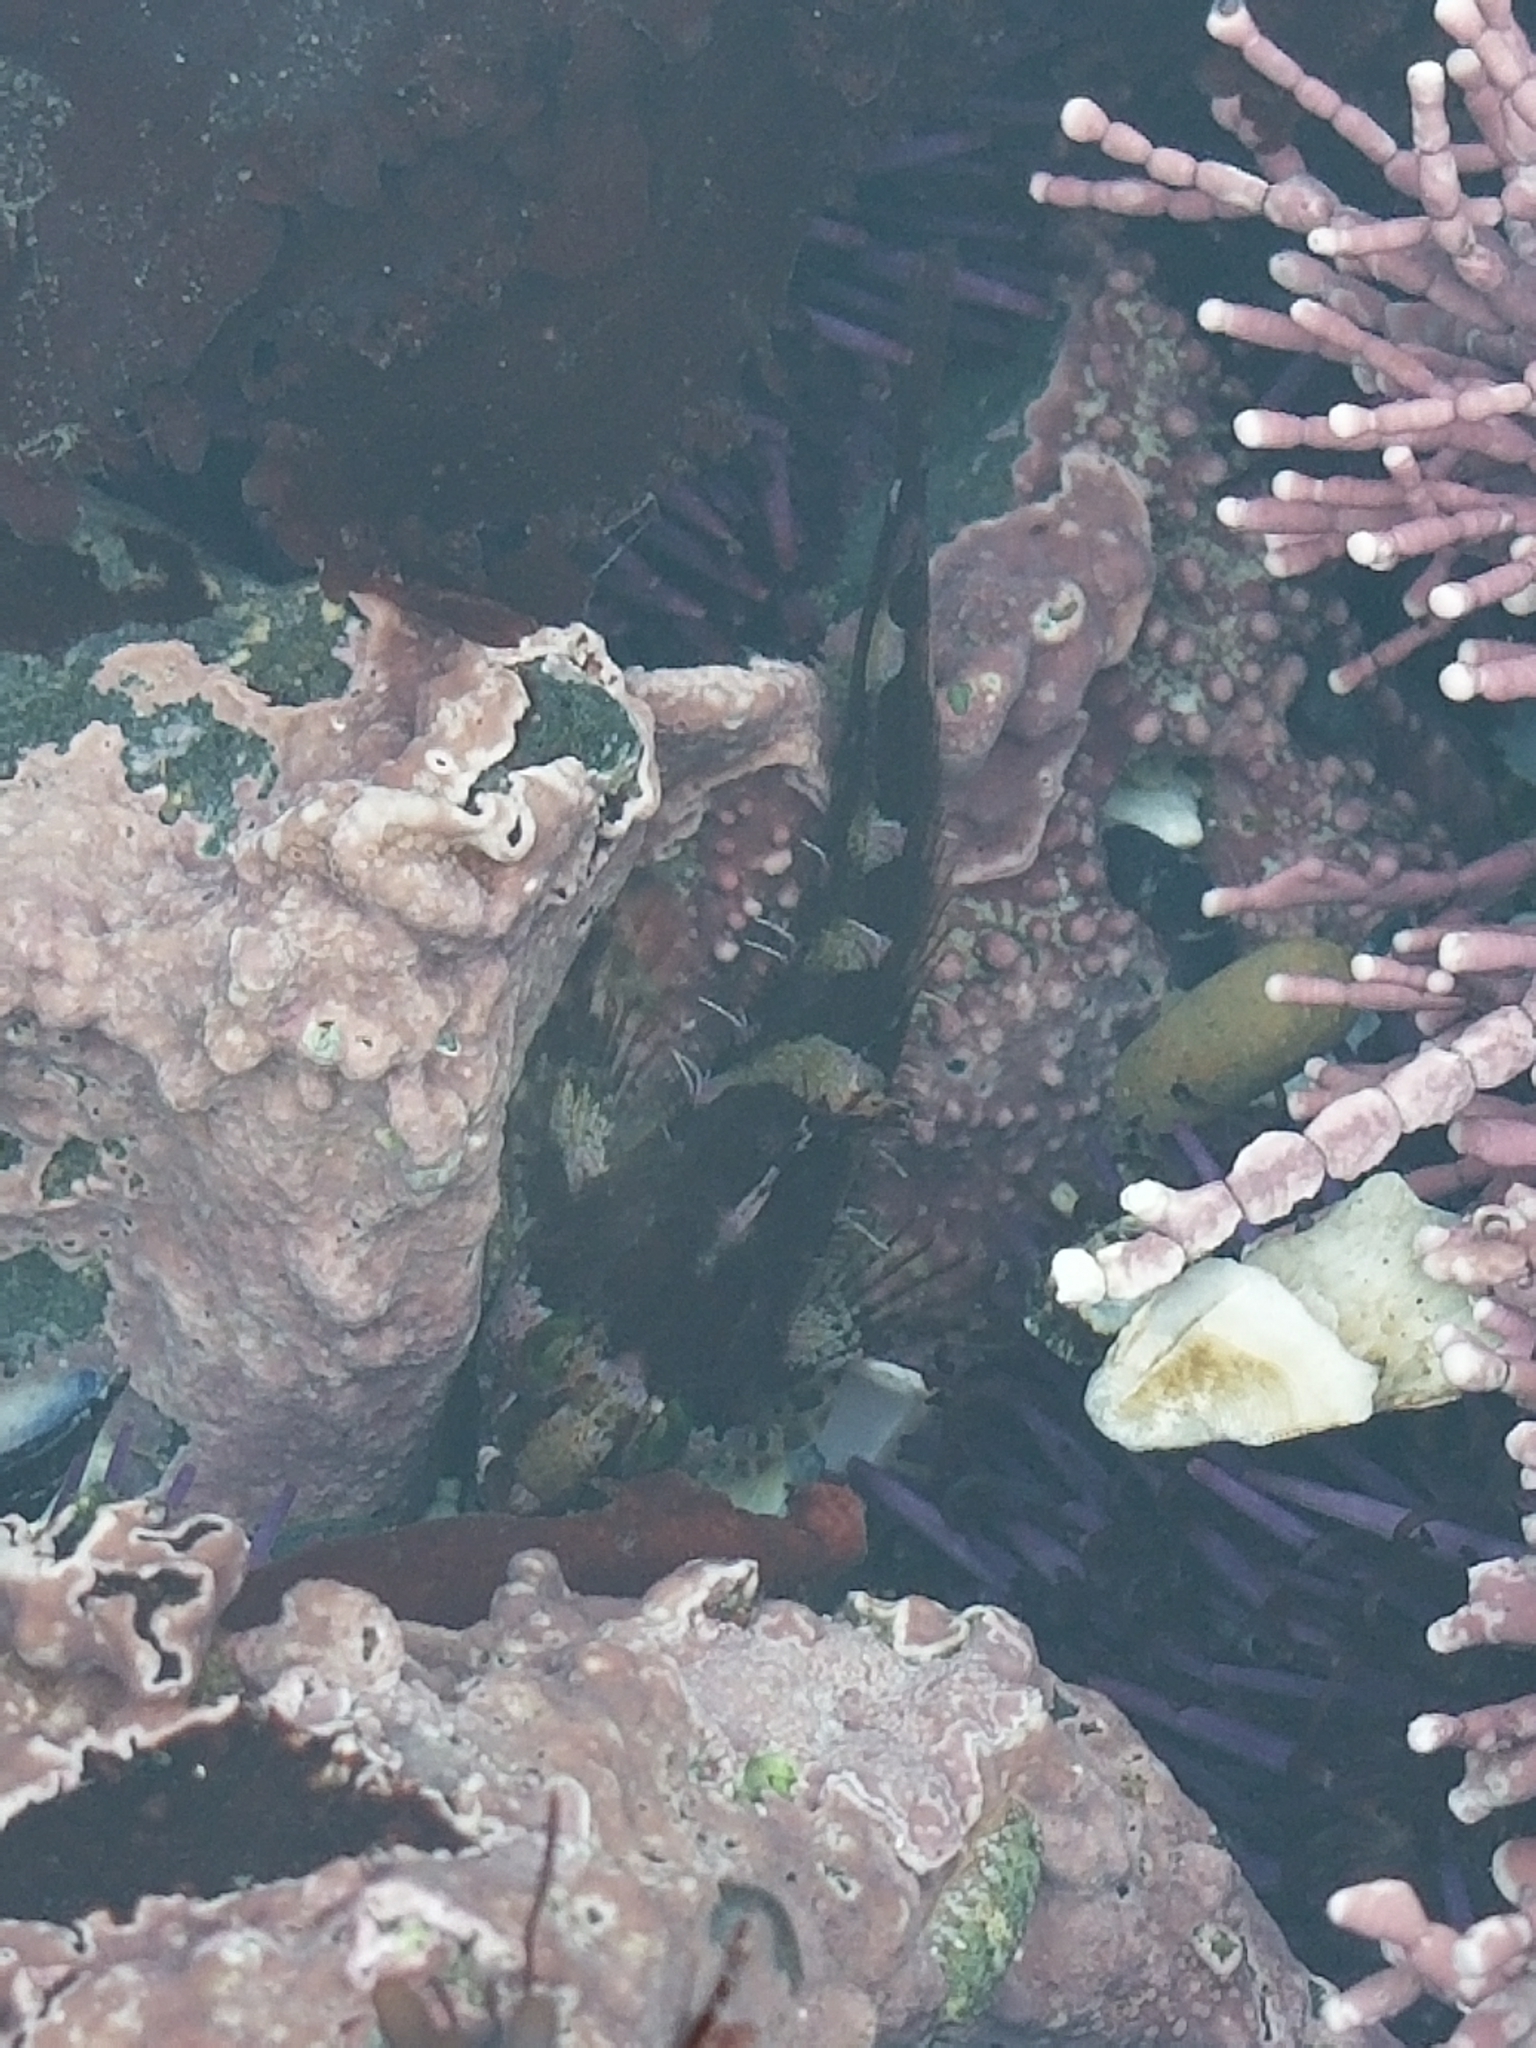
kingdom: Animalia
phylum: Chordata
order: Scorpaeniformes
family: Cottidae
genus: Oligocottus
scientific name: Oligocottus snyderi
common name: Fluffy sculpin
